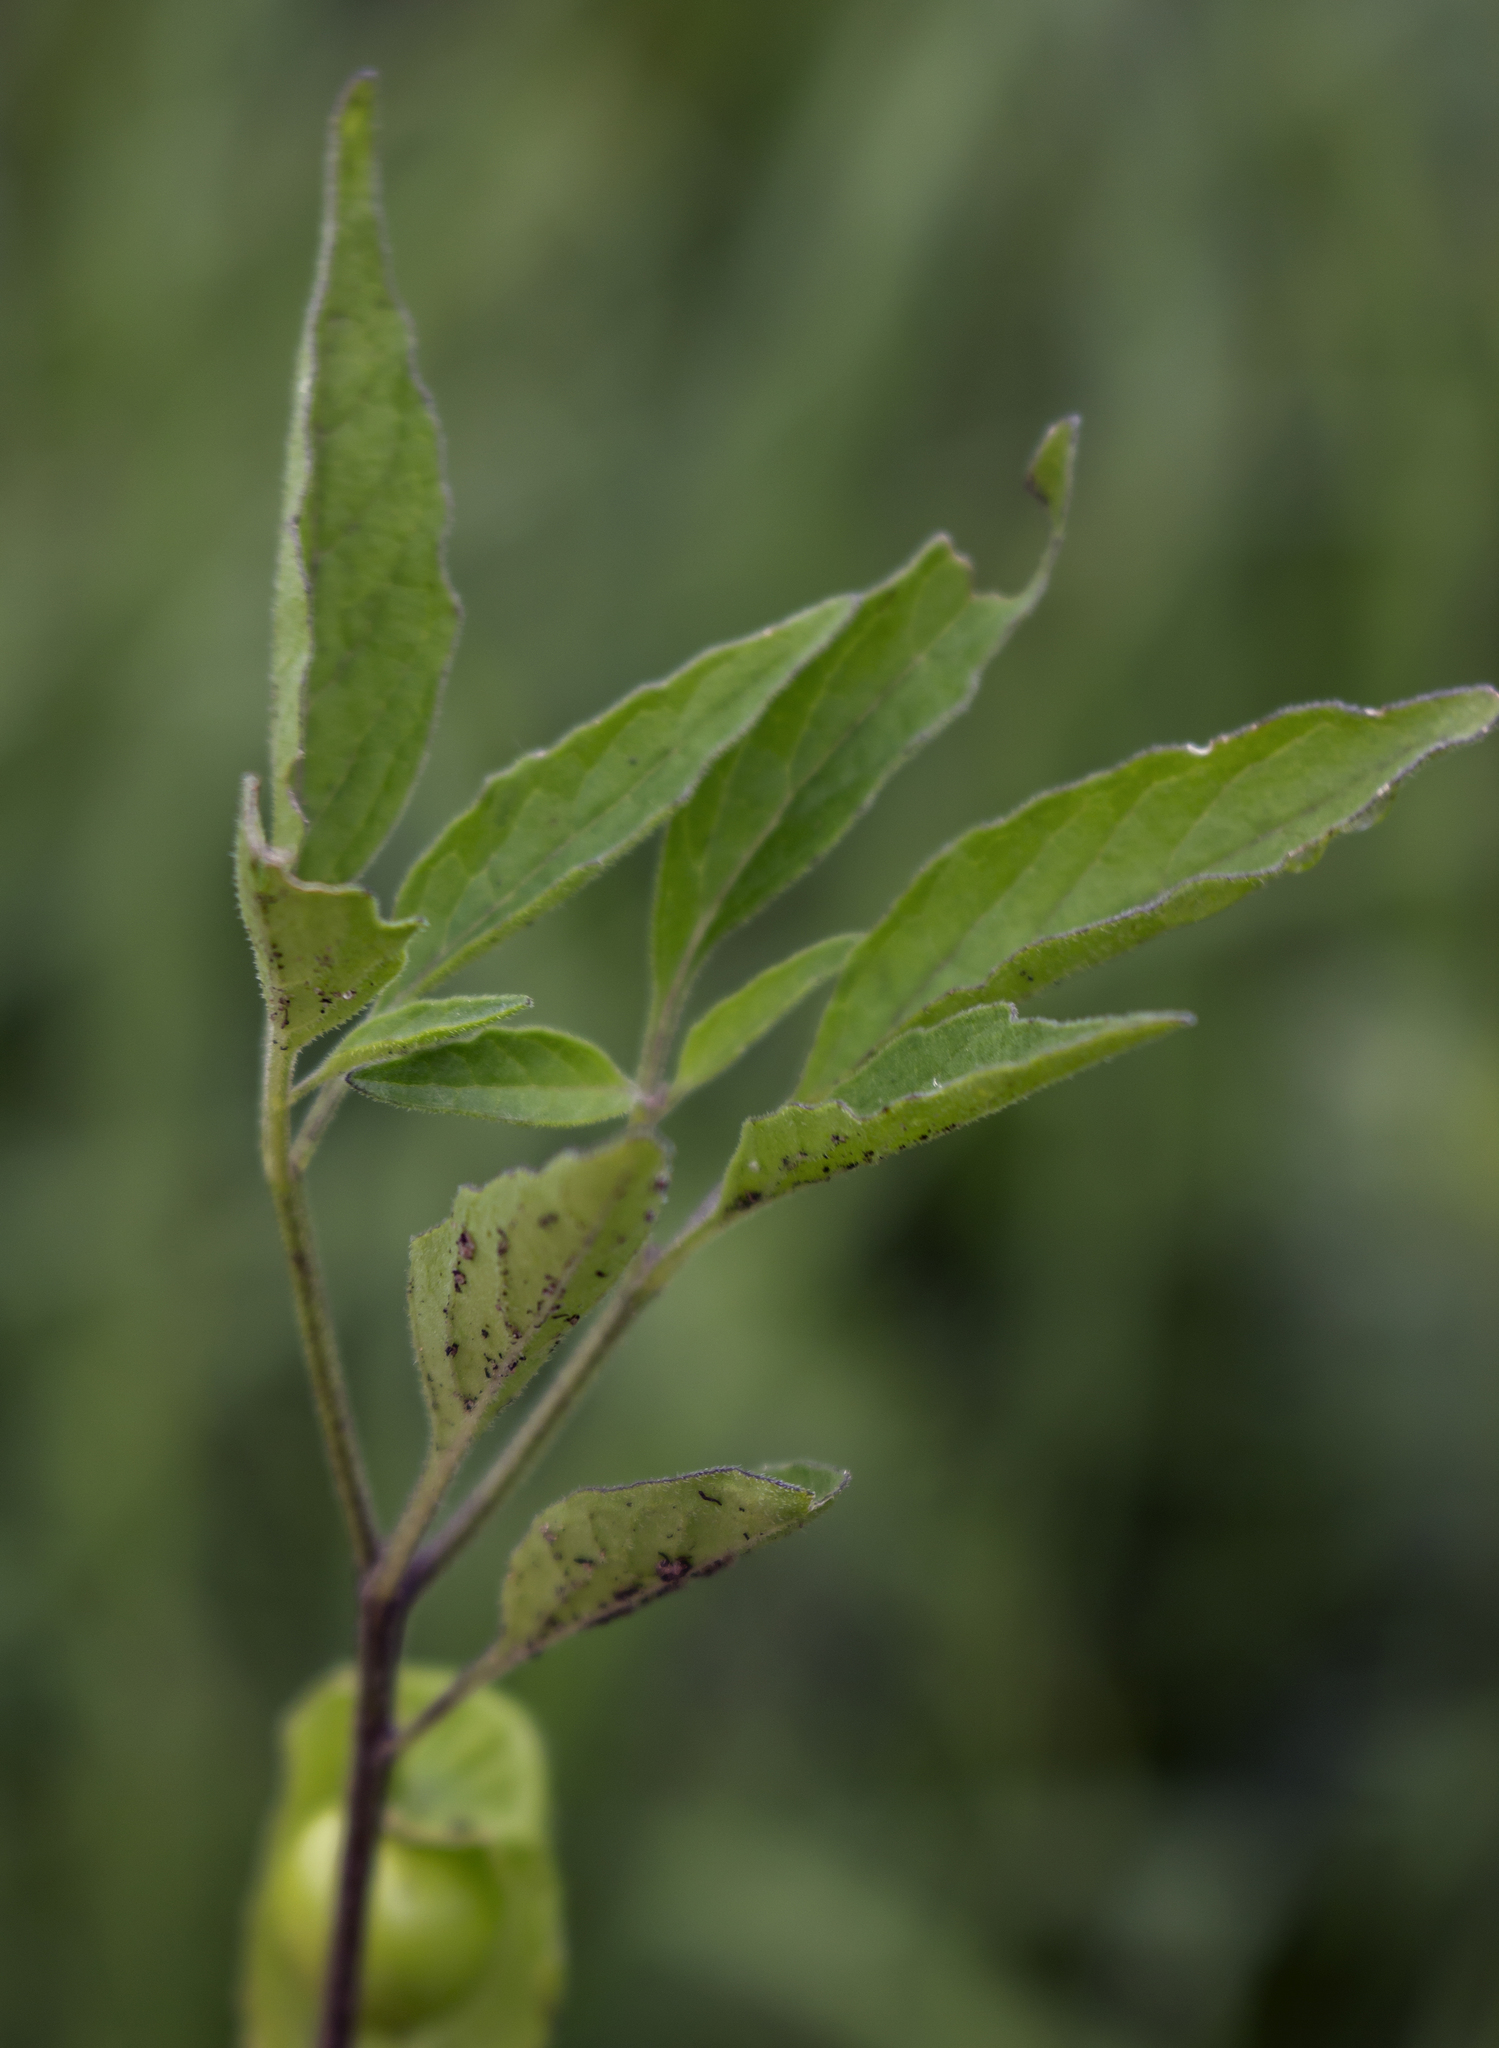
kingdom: Plantae
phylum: Tracheophyta
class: Magnoliopsida
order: Solanales
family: Solanaceae
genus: Physalis
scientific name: Physalis virginiana
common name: Virginia ground-cherry
